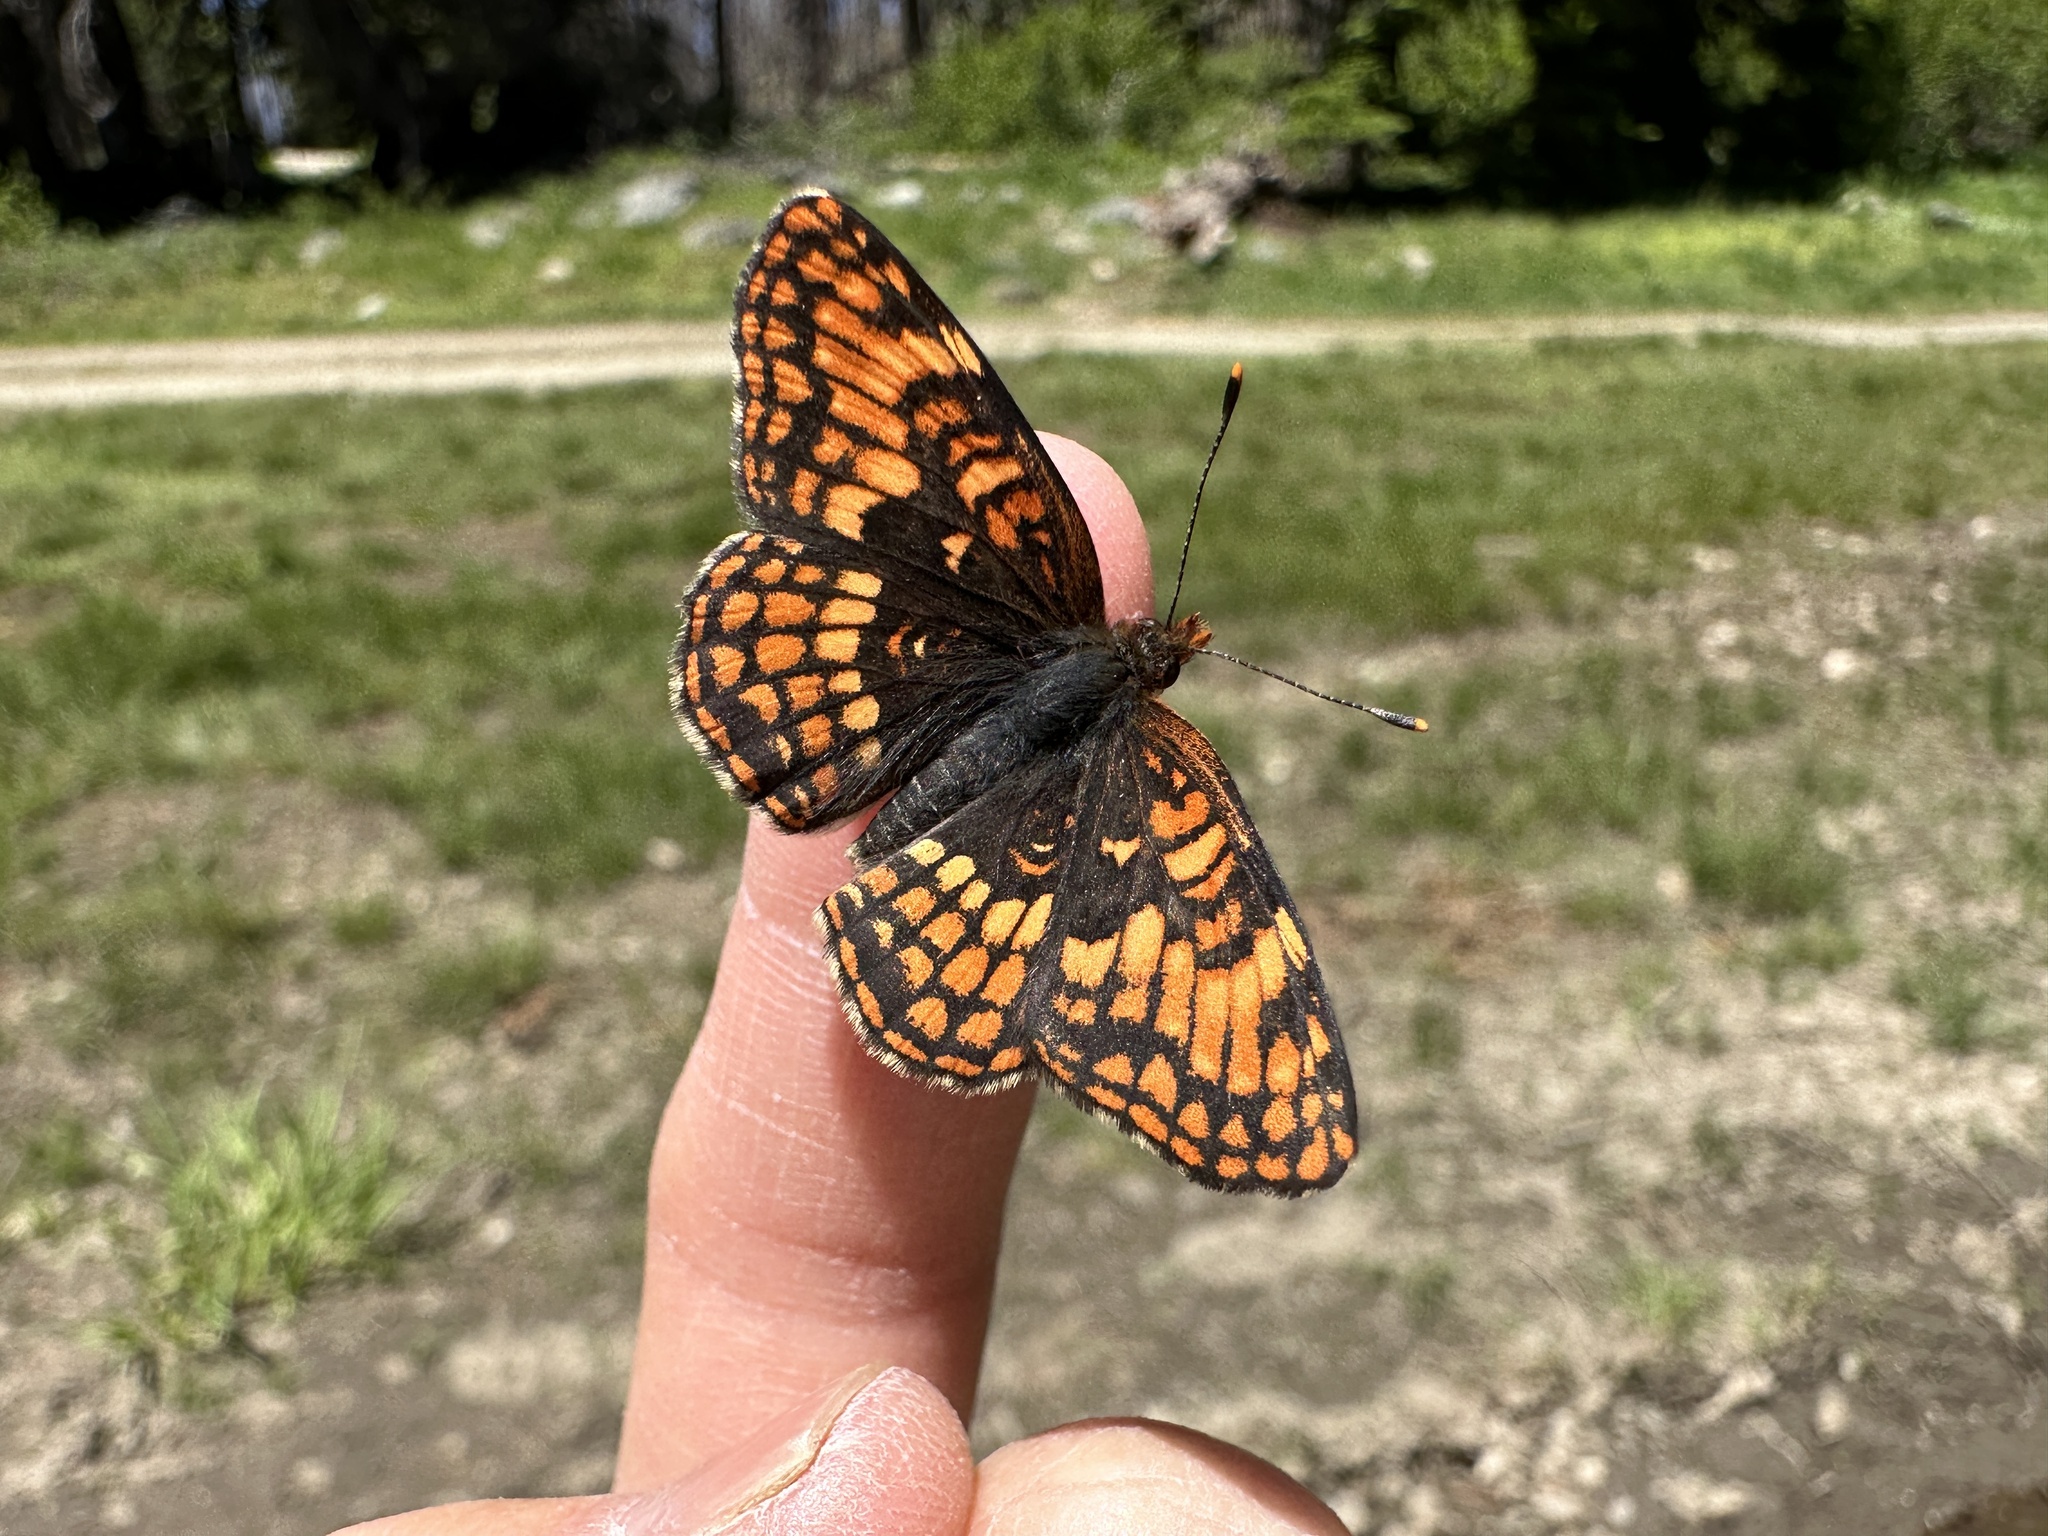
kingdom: Animalia
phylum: Arthropoda
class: Insecta
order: Lepidoptera
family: Nymphalidae
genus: Chlosyne
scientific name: Chlosyne hoffmanni
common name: Hoffmann's checkerspot
